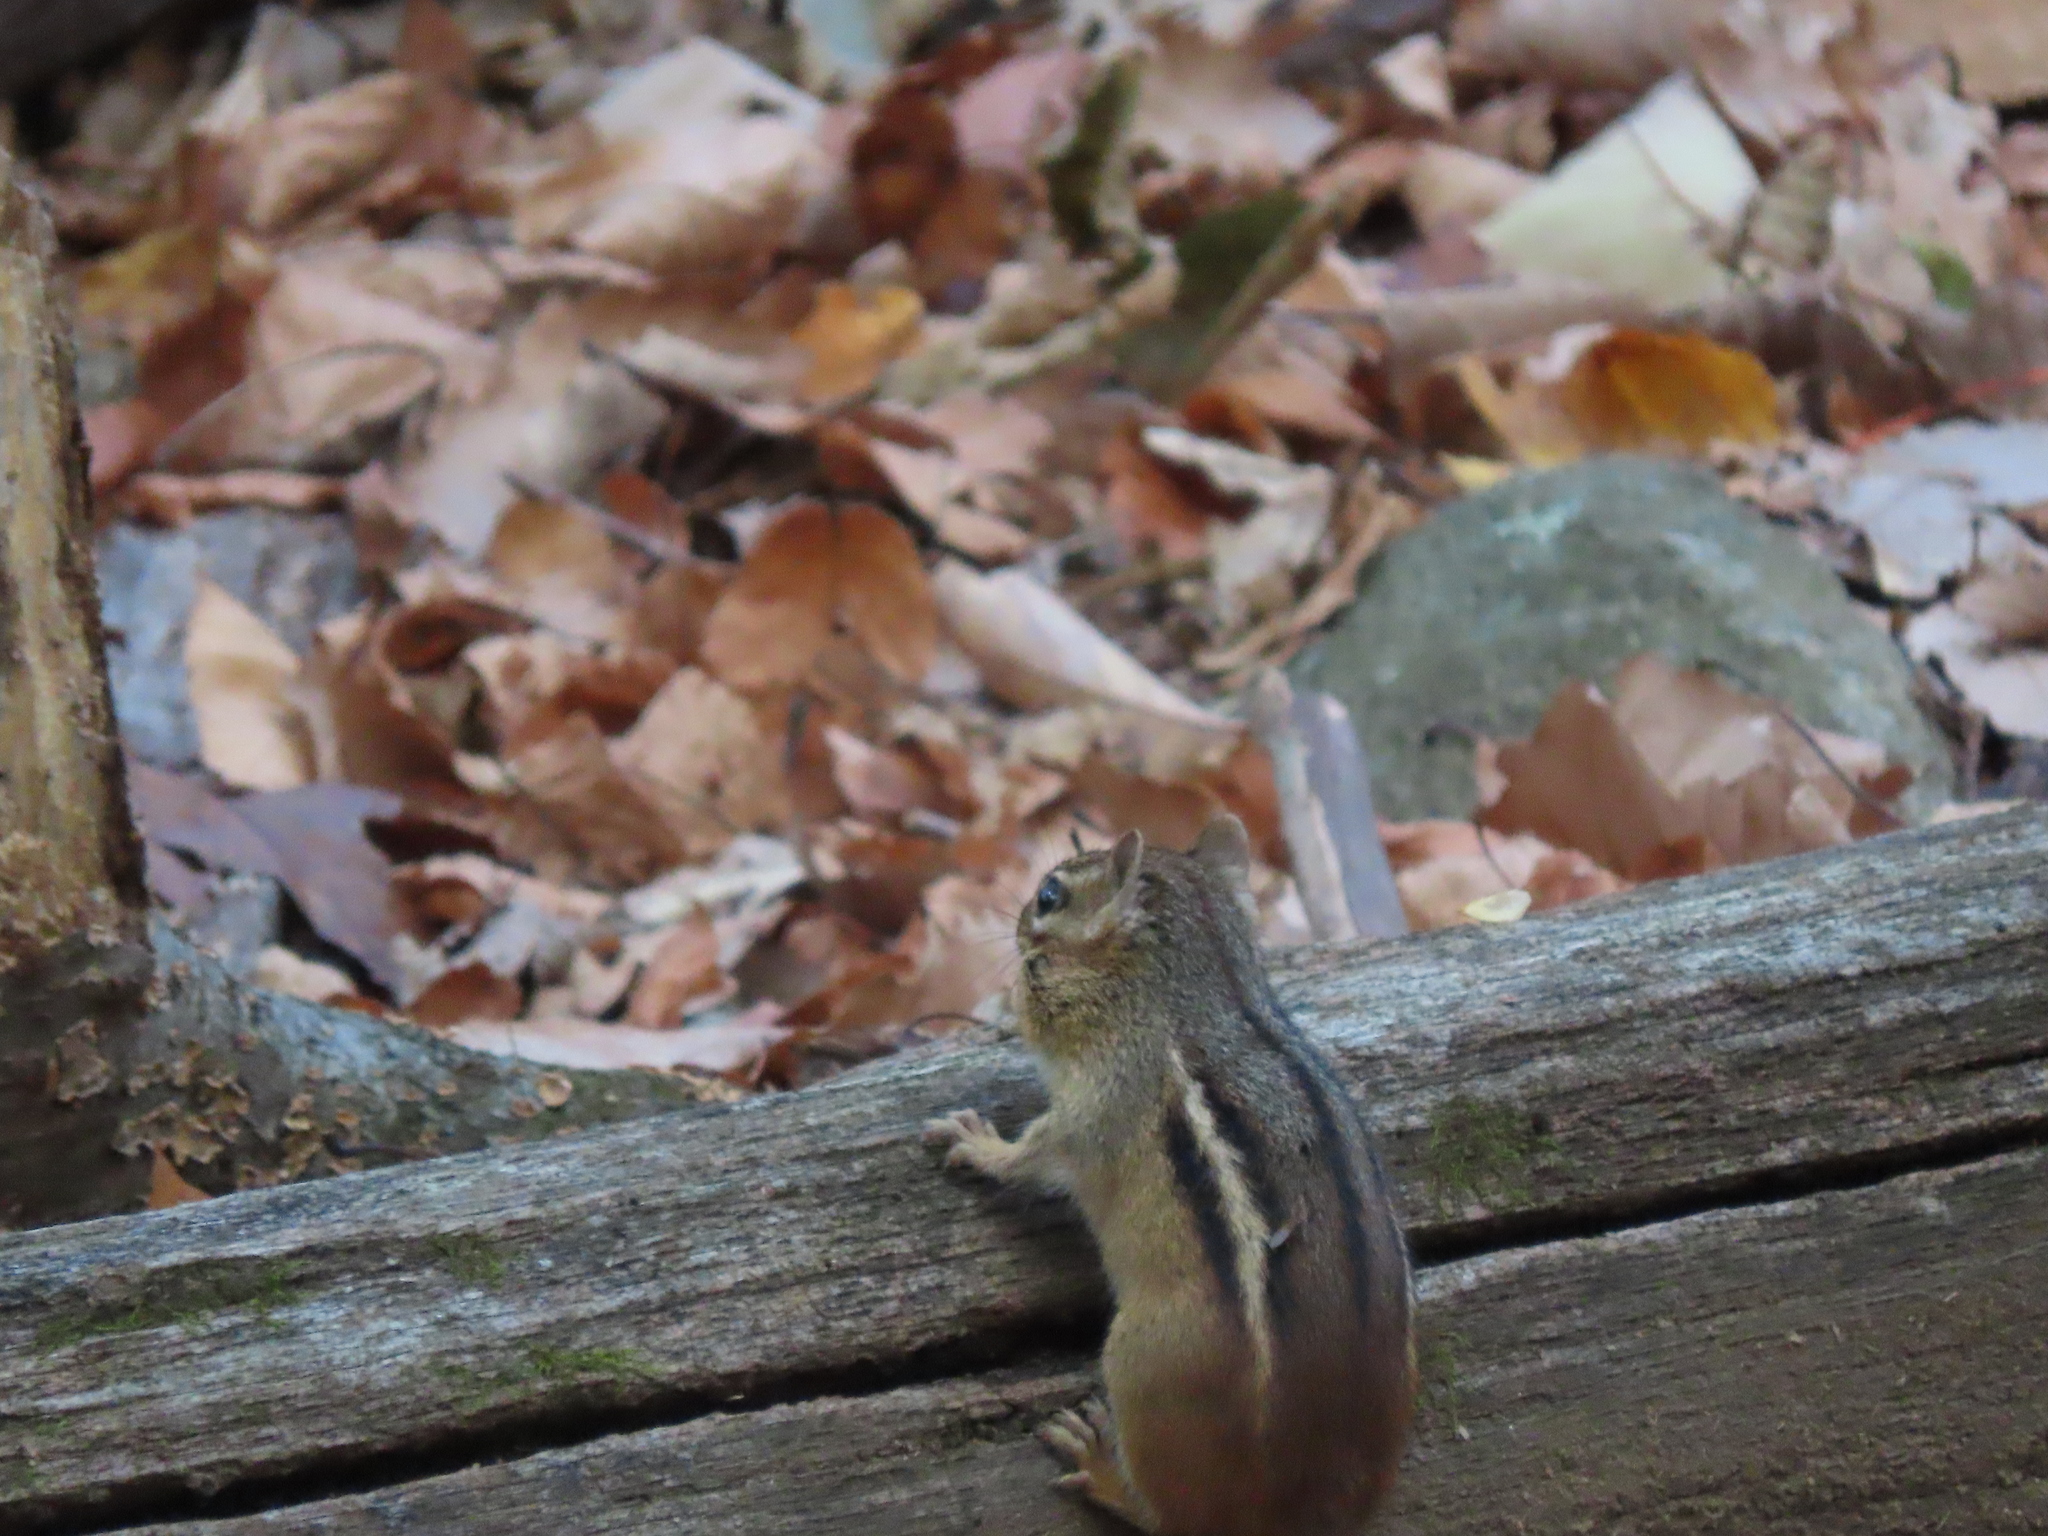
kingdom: Animalia
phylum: Chordata
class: Mammalia
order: Rodentia
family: Sciuridae
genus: Tamias
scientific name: Tamias striatus
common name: Eastern chipmunk
